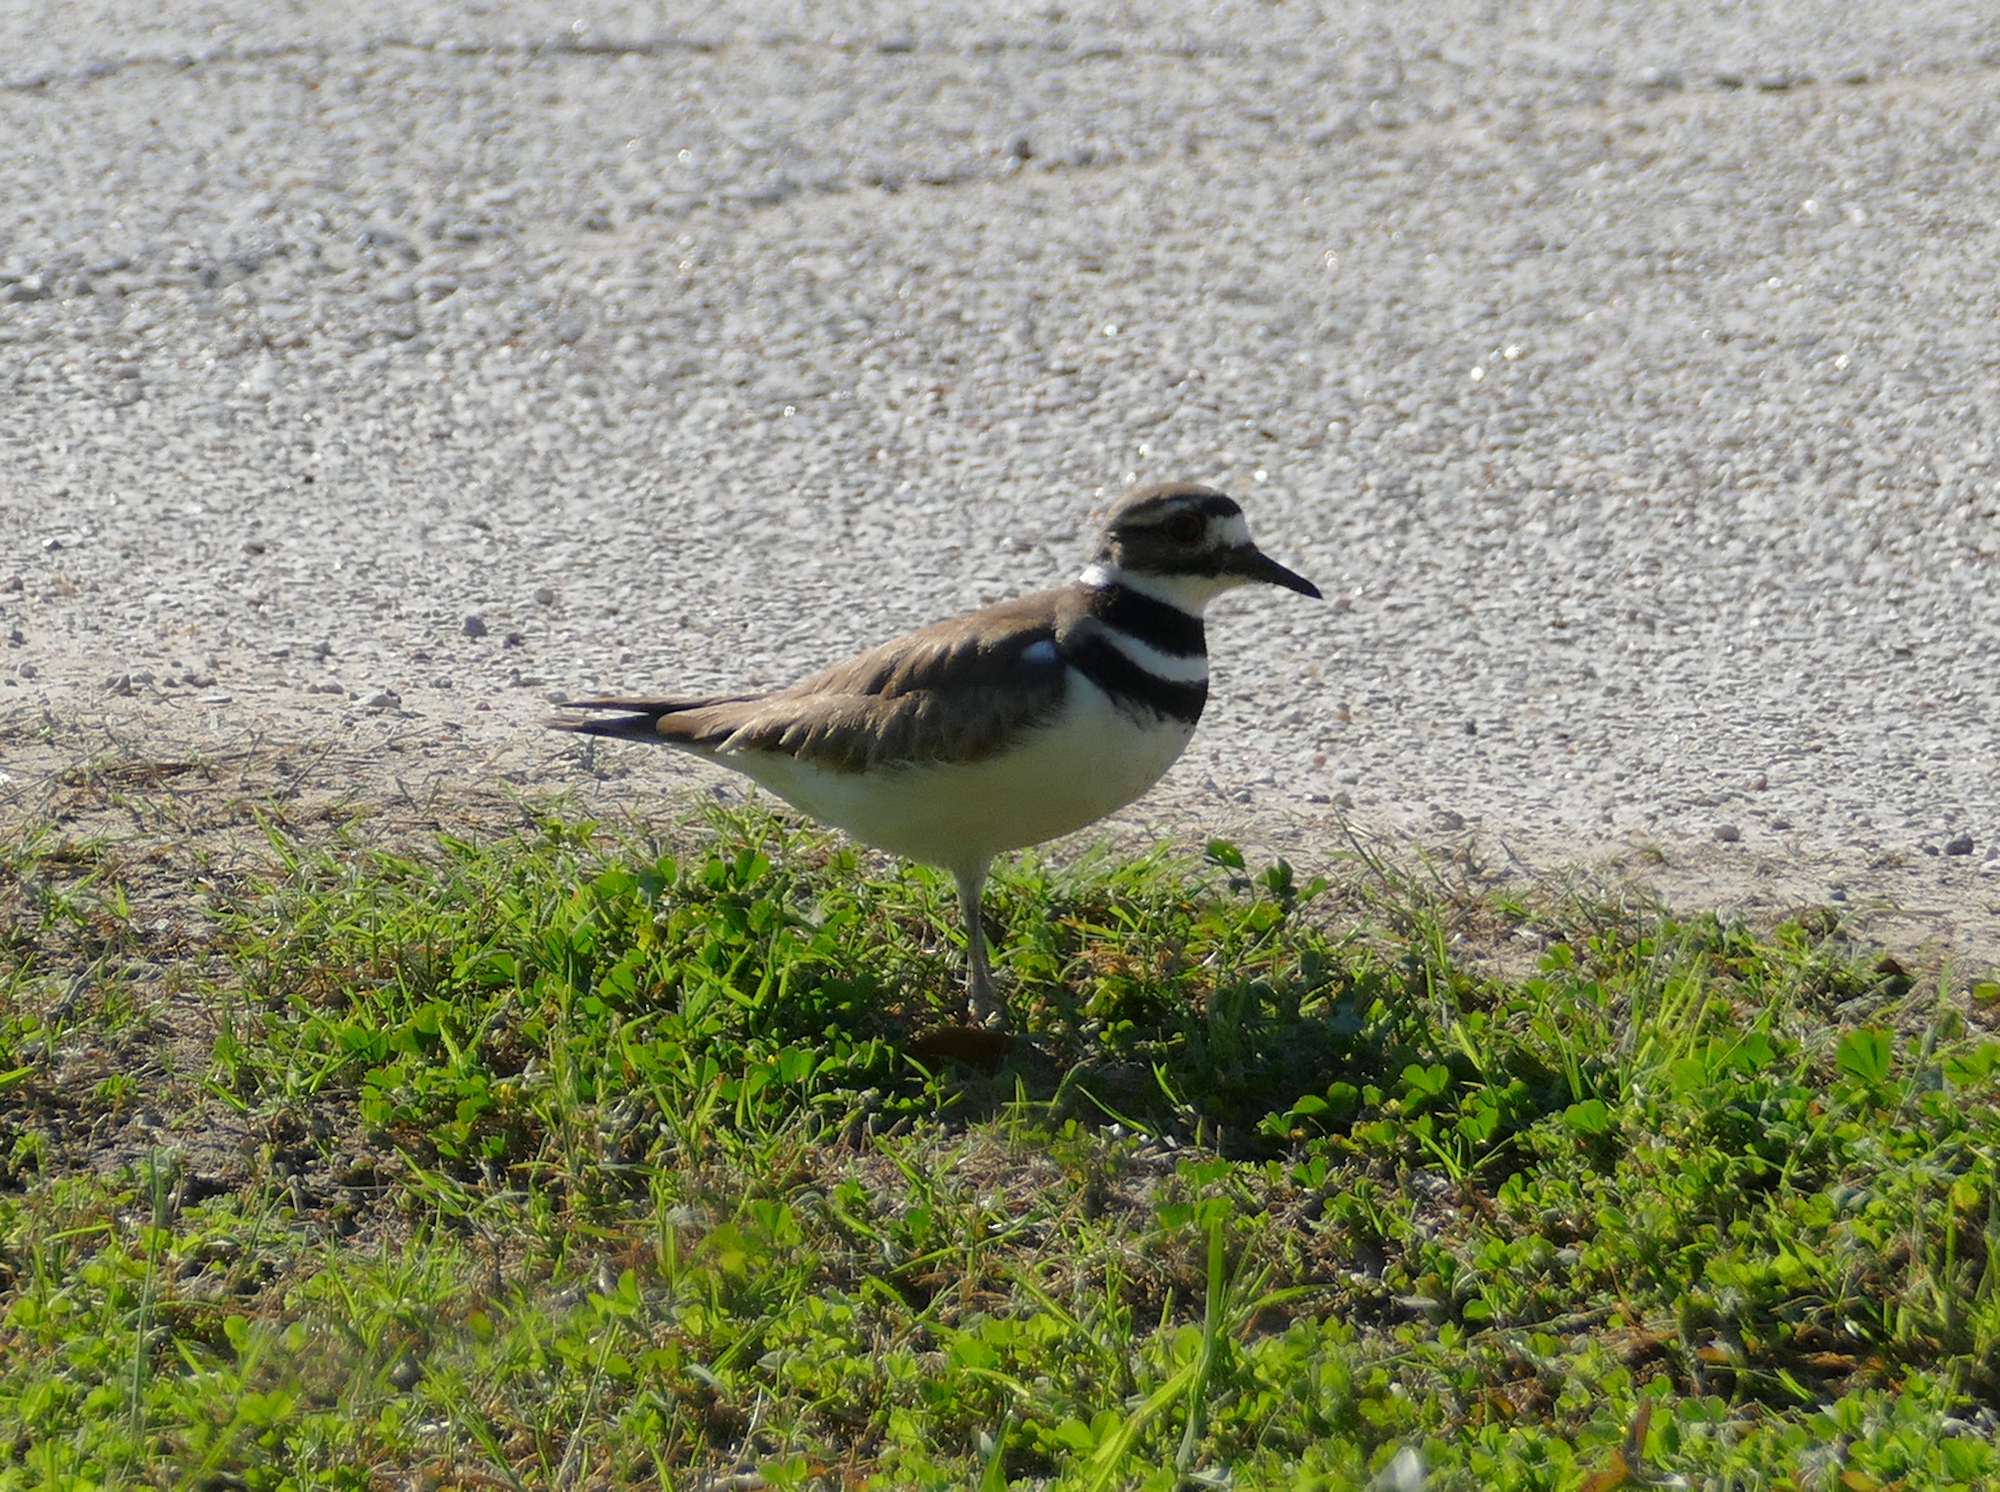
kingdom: Animalia
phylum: Chordata
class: Aves
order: Charadriiformes
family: Charadriidae
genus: Charadrius
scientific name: Charadrius vociferus
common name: Killdeer
